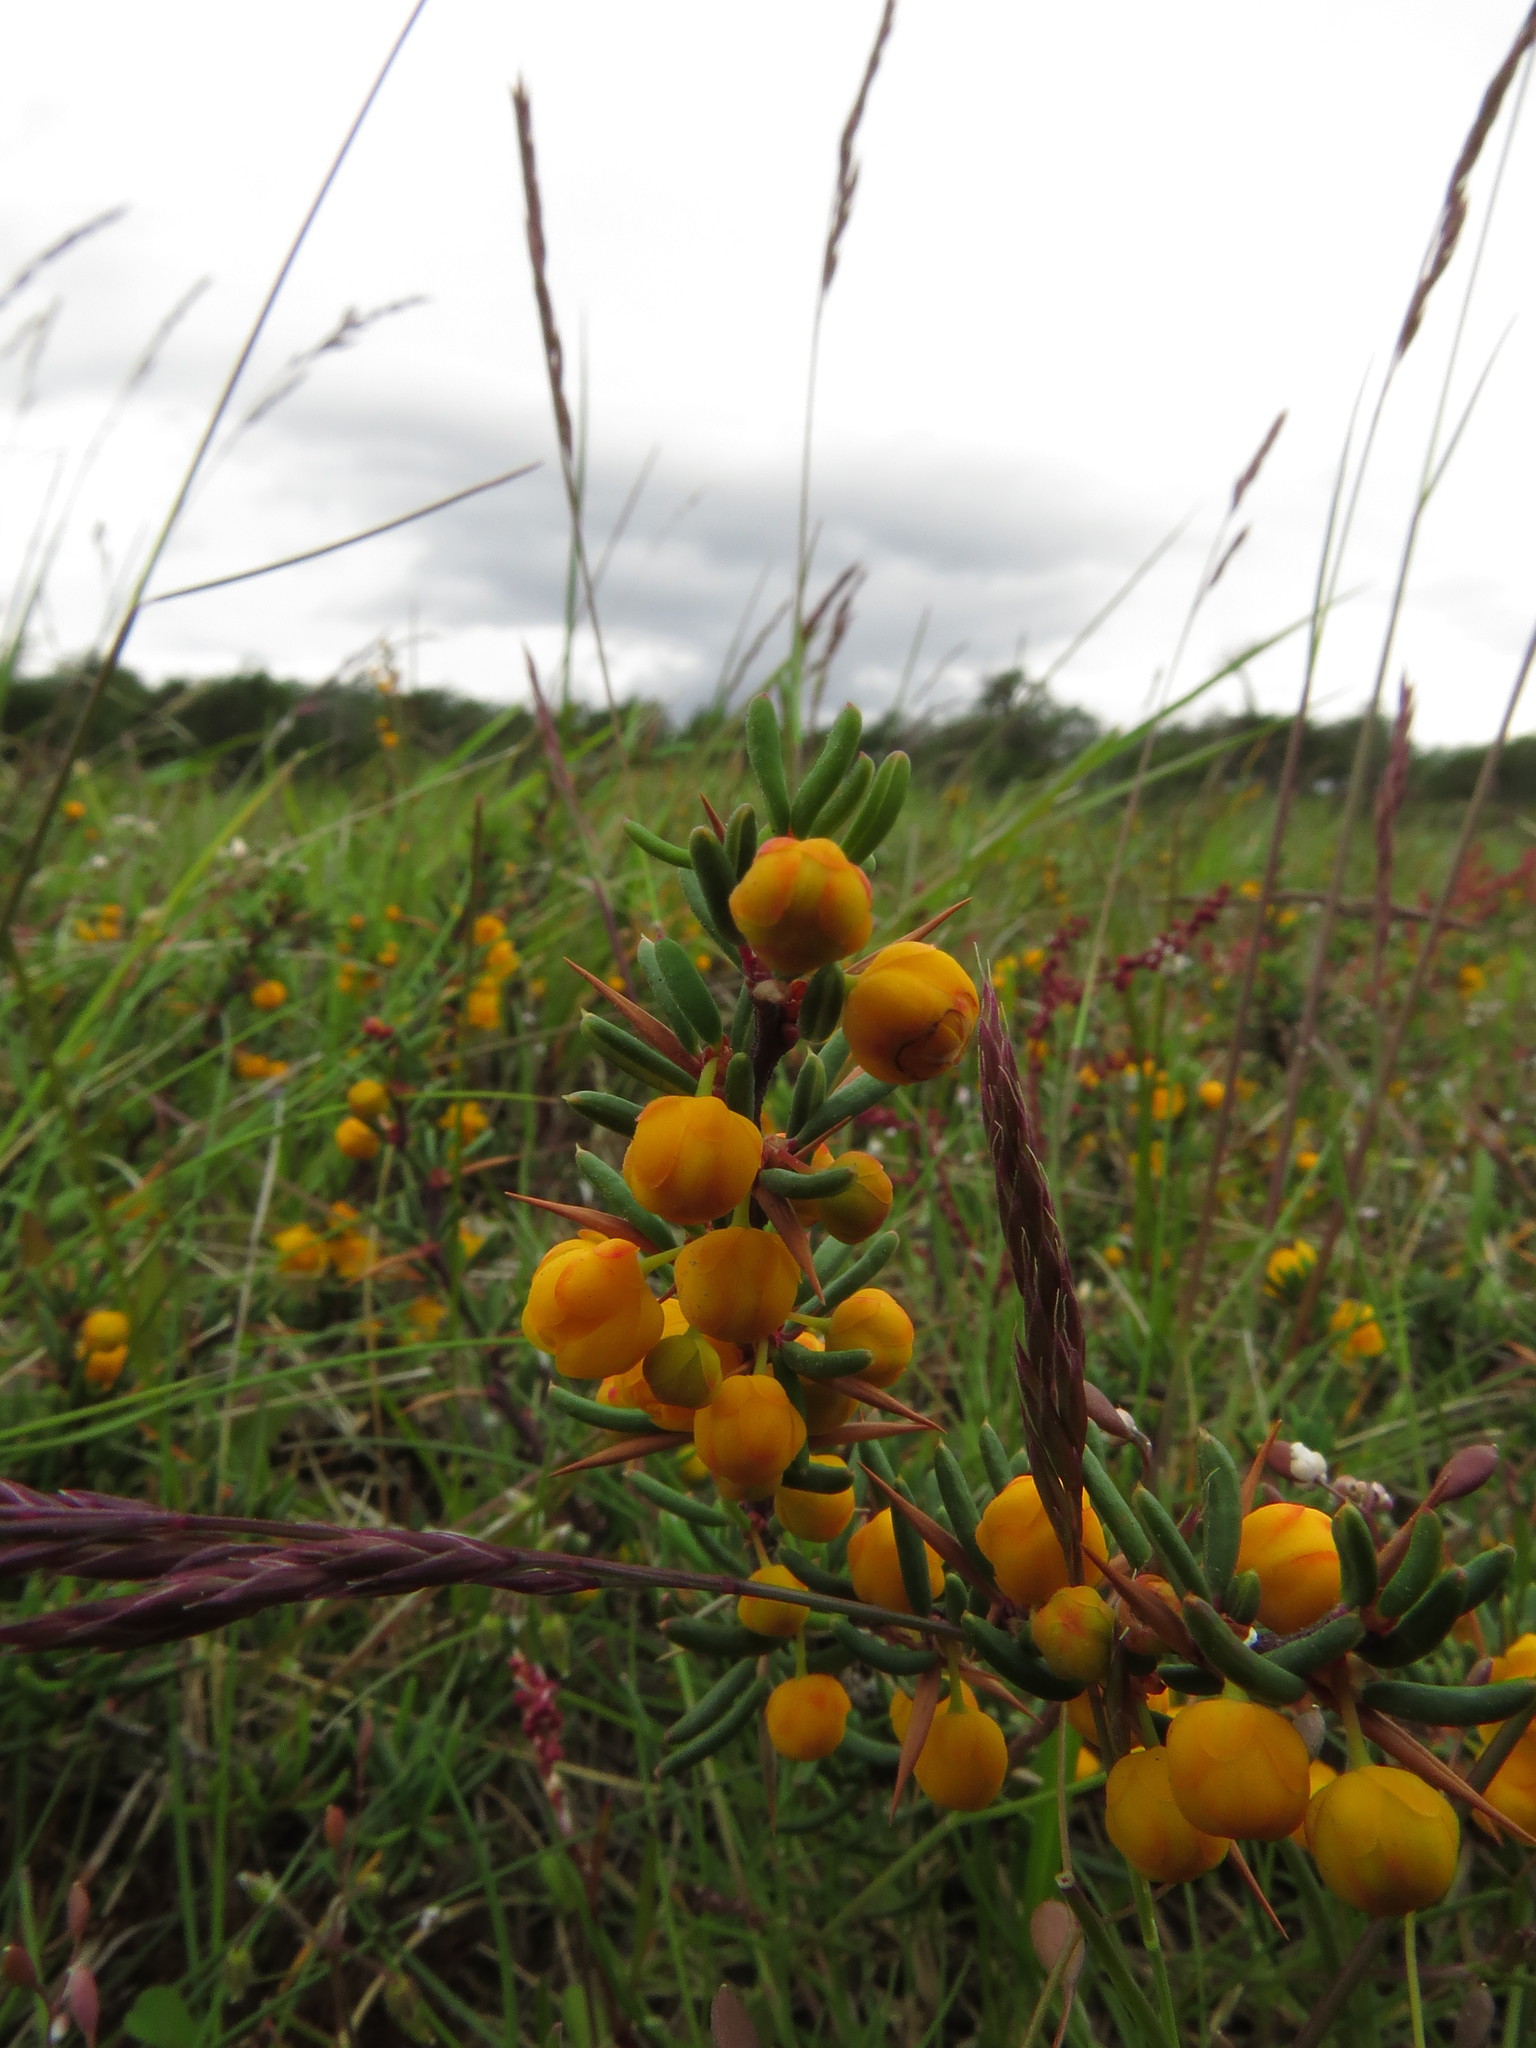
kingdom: Plantae
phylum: Tracheophyta
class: Magnoliopsida
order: Ranunculales
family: Berberidaceae
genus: Berberis
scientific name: Berberis empetrifolia
